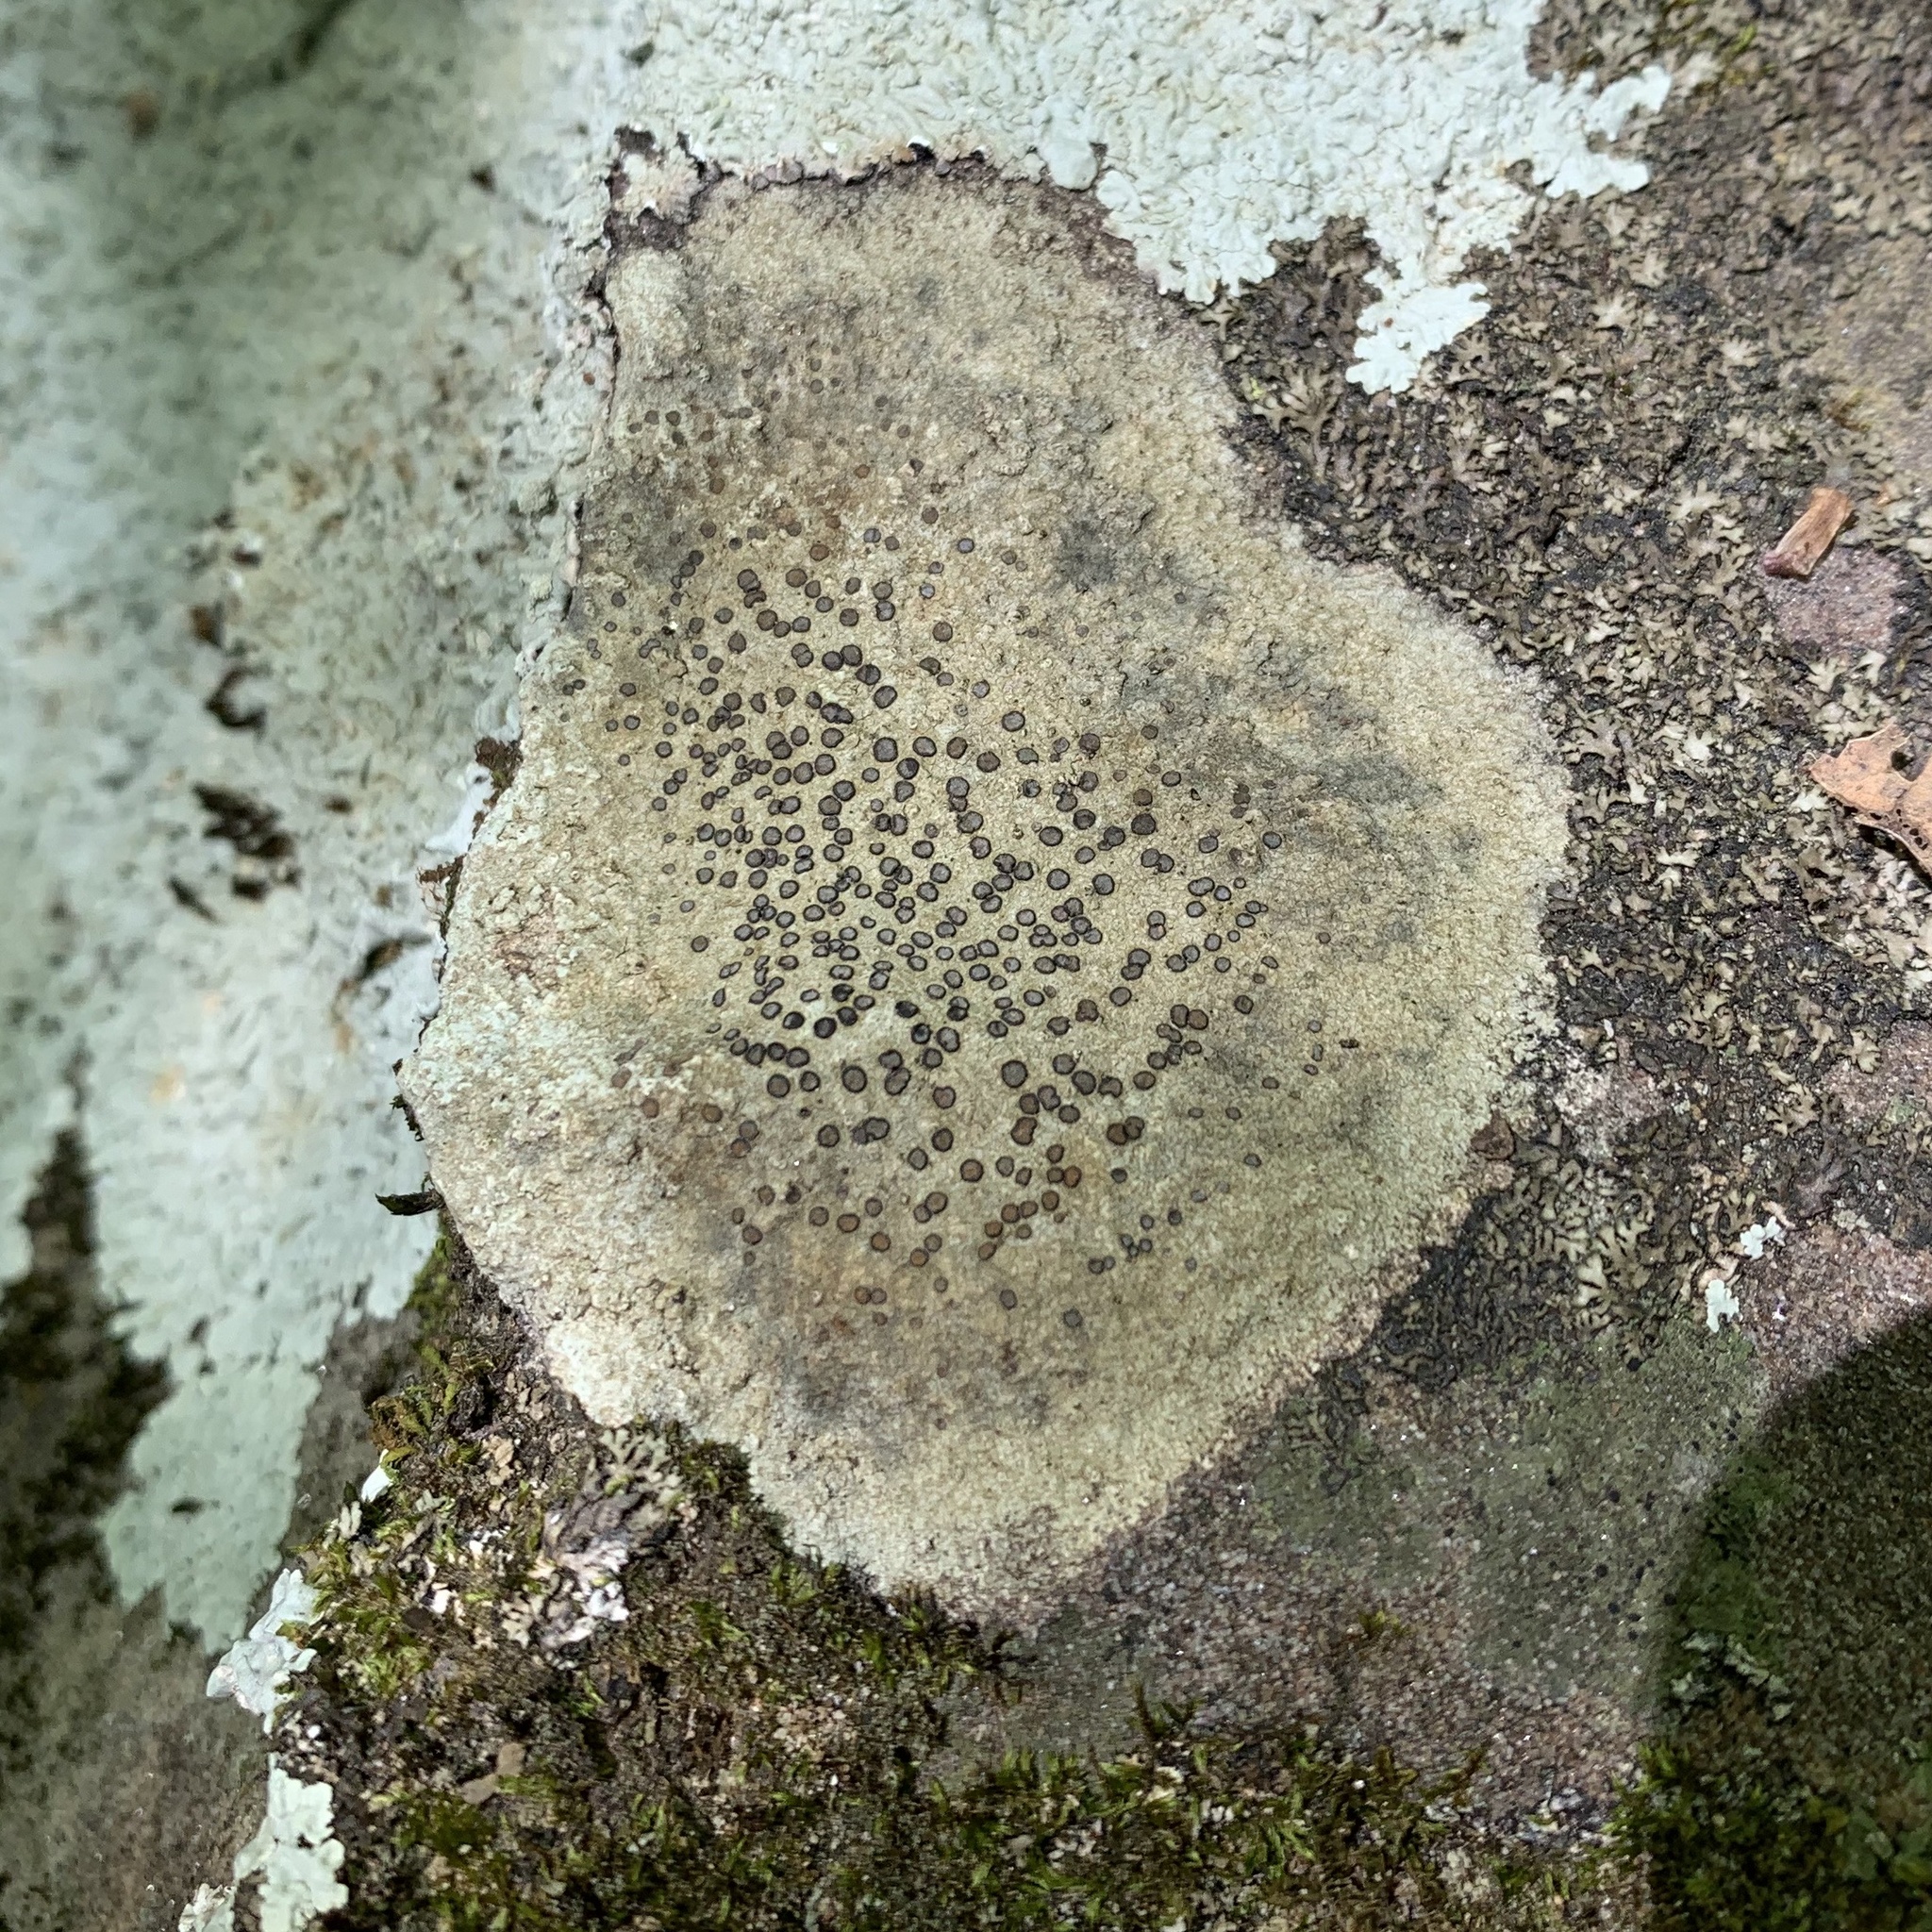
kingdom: Fungi
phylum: Ascomycota
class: Lecanoromycetes
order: Lecideales
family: Lecideaceae
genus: Porpidia
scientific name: Porpidia albocaerulescens
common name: Smokey-eyed boulder lichen
